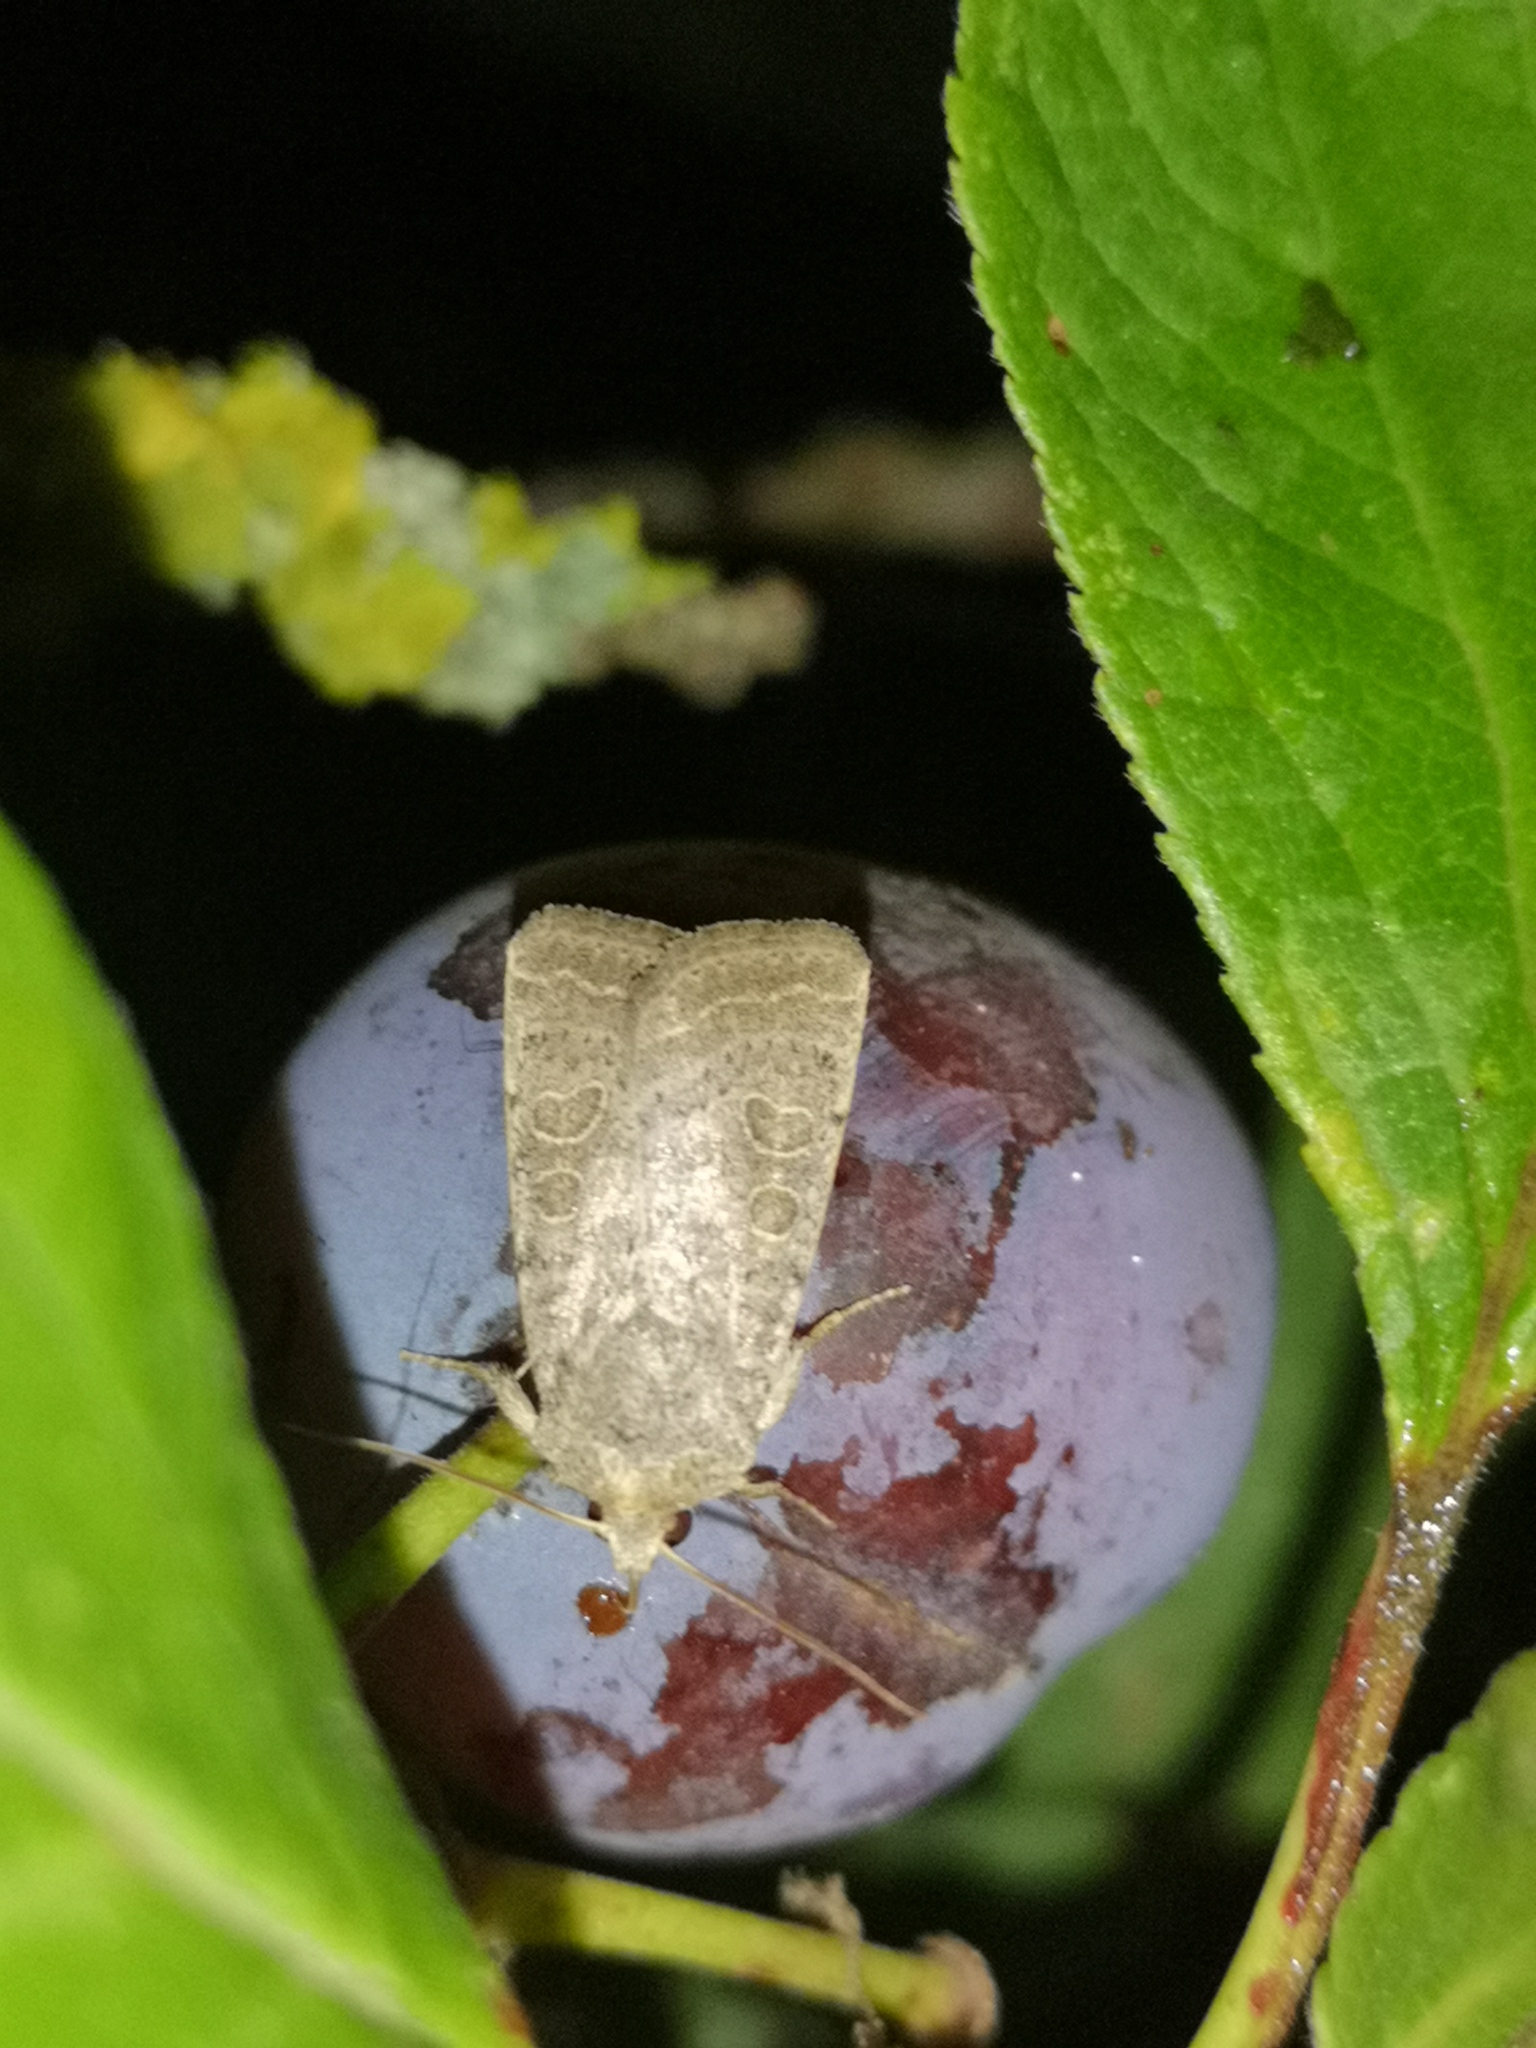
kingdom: Animalia
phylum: Arthropoda
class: Insecta
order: Lepidoptera
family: Noctuidae
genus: Hoplodrina
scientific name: Hoplodrina ambigua
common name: Vine's rustic
